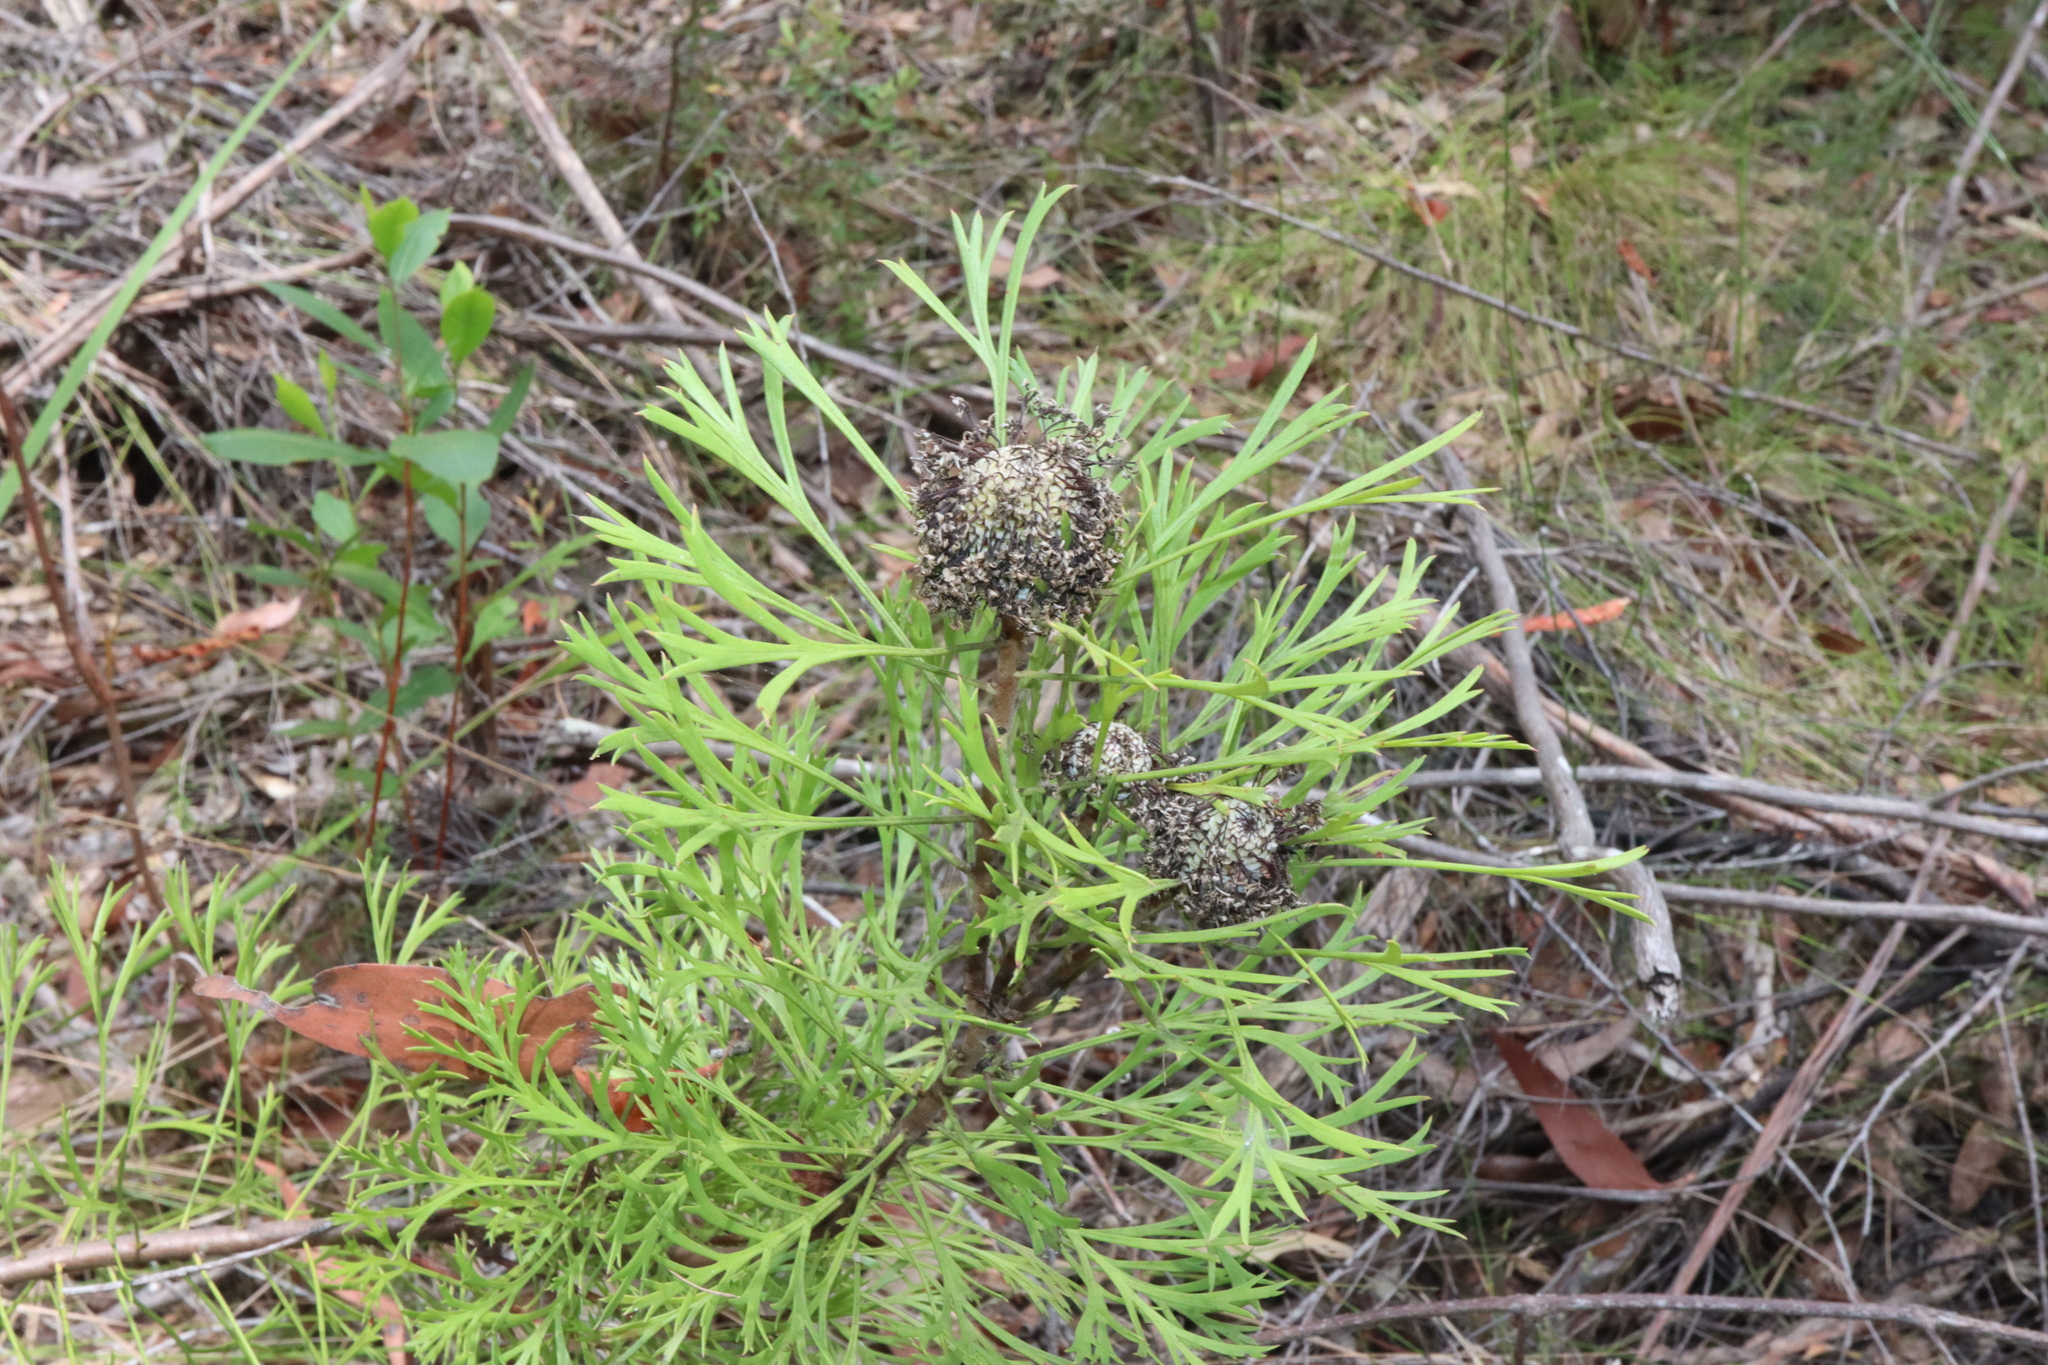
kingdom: Plantae
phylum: Tracheophyta
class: Magnoliopsida
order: Proteales
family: Proteaceae
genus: Isopogon
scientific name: Isopogon anemonifolius
